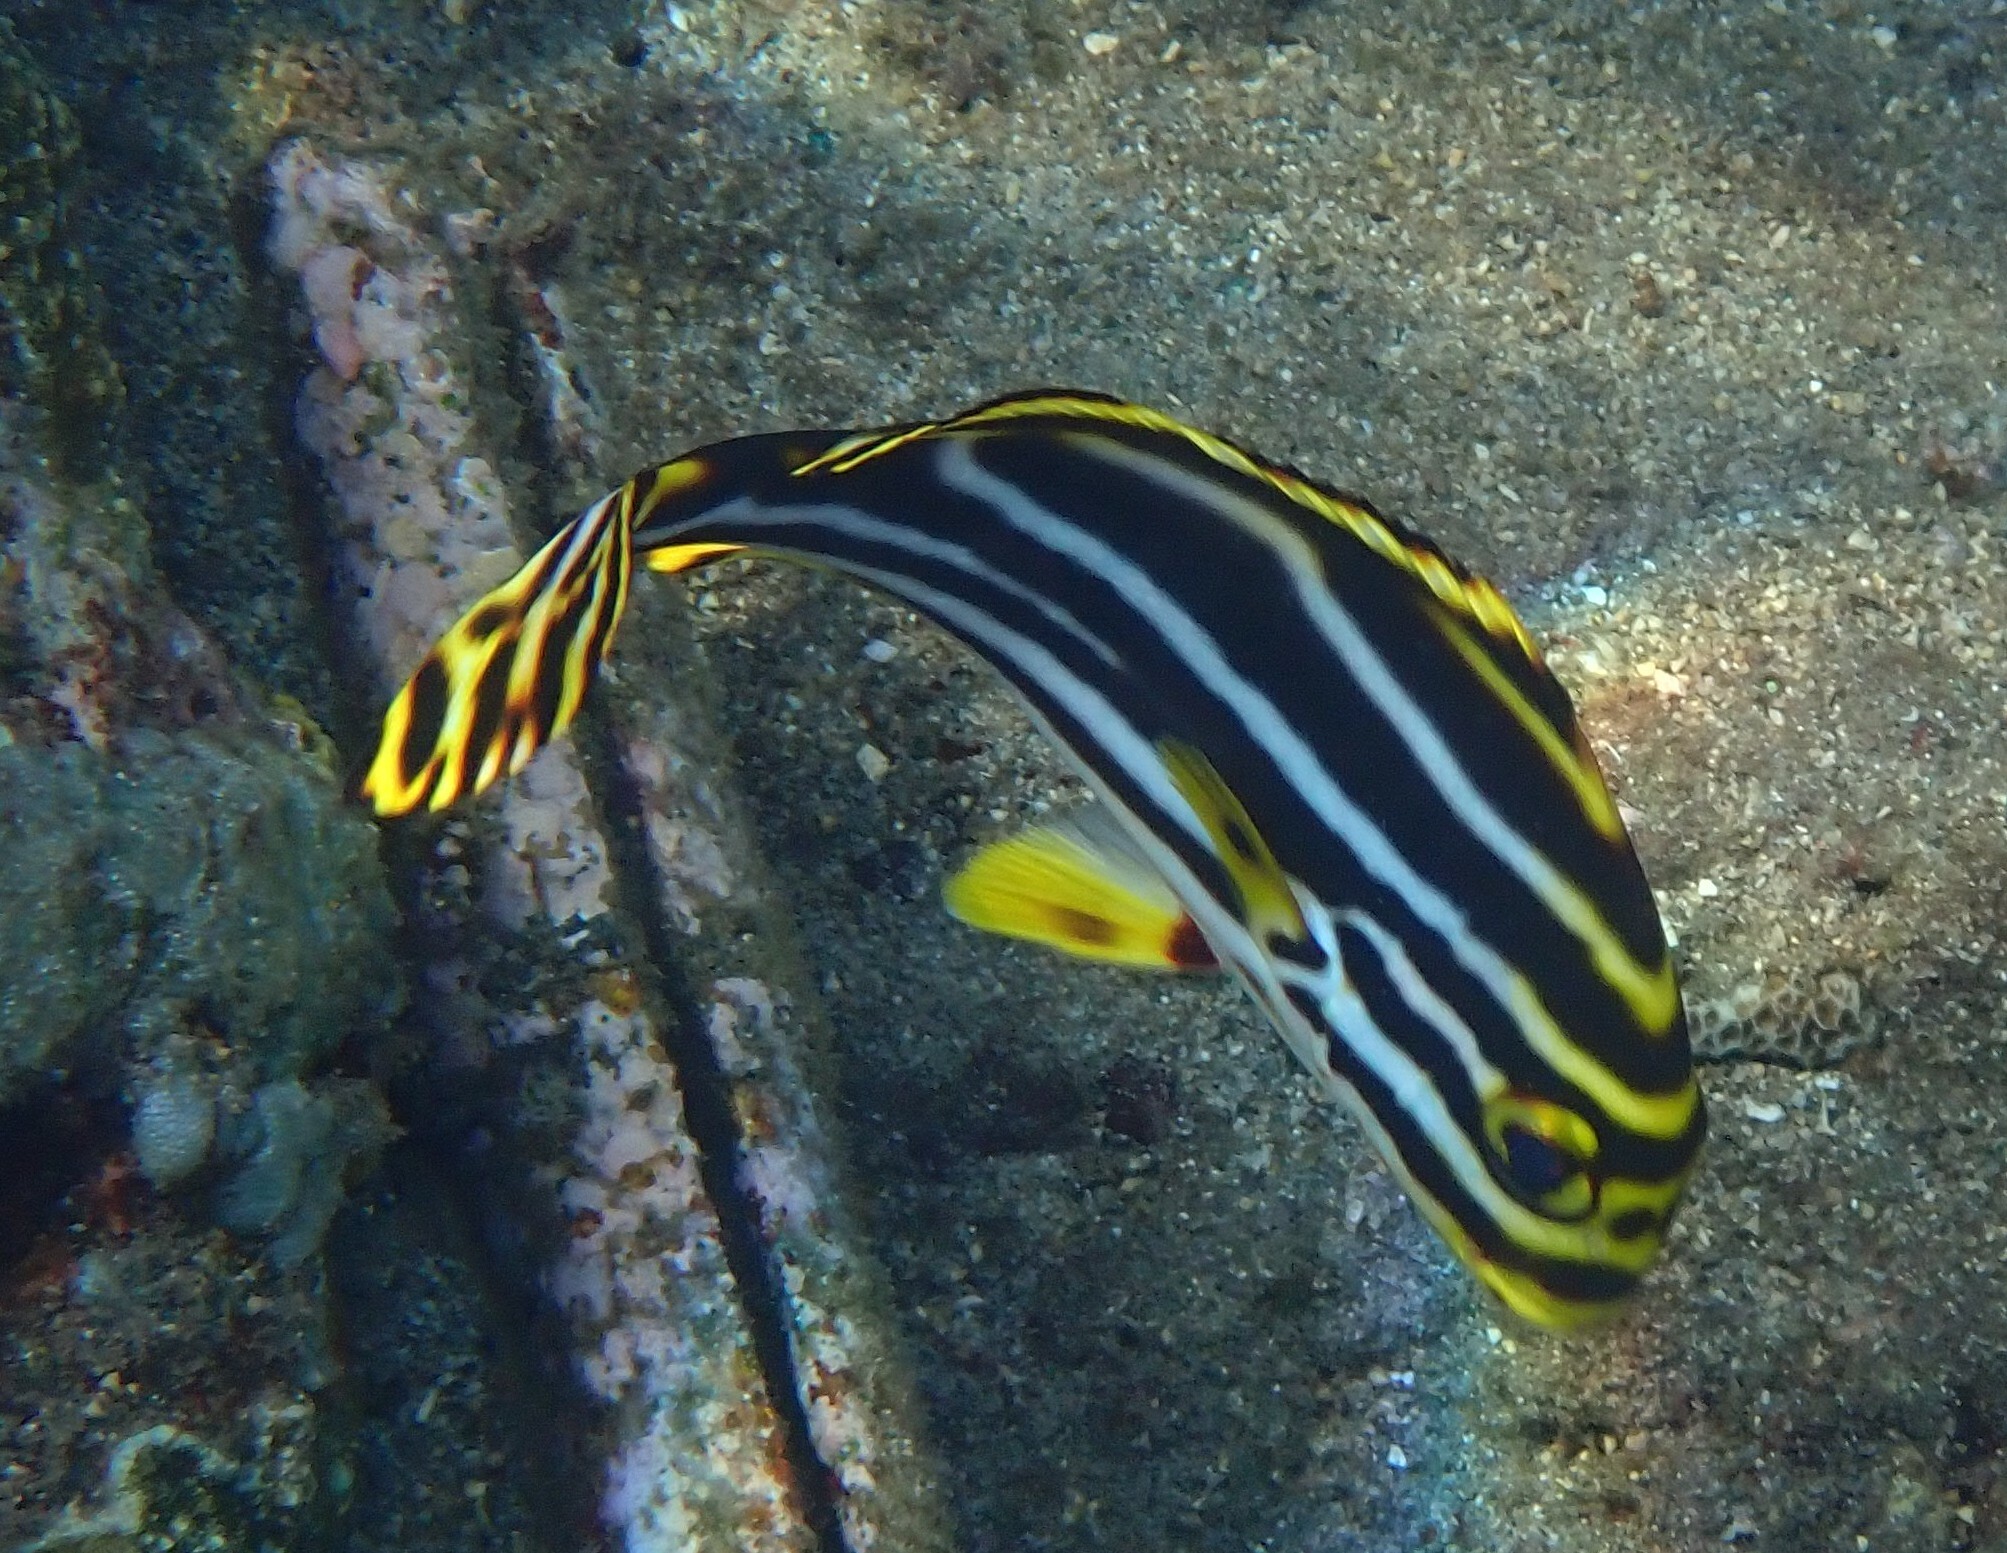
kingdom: Animalia
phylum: Chordata
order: Perciformes
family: Haemulidae
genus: Plectorhinchus
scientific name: Plectorhinchus vittatus
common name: Oriental sweetlips
